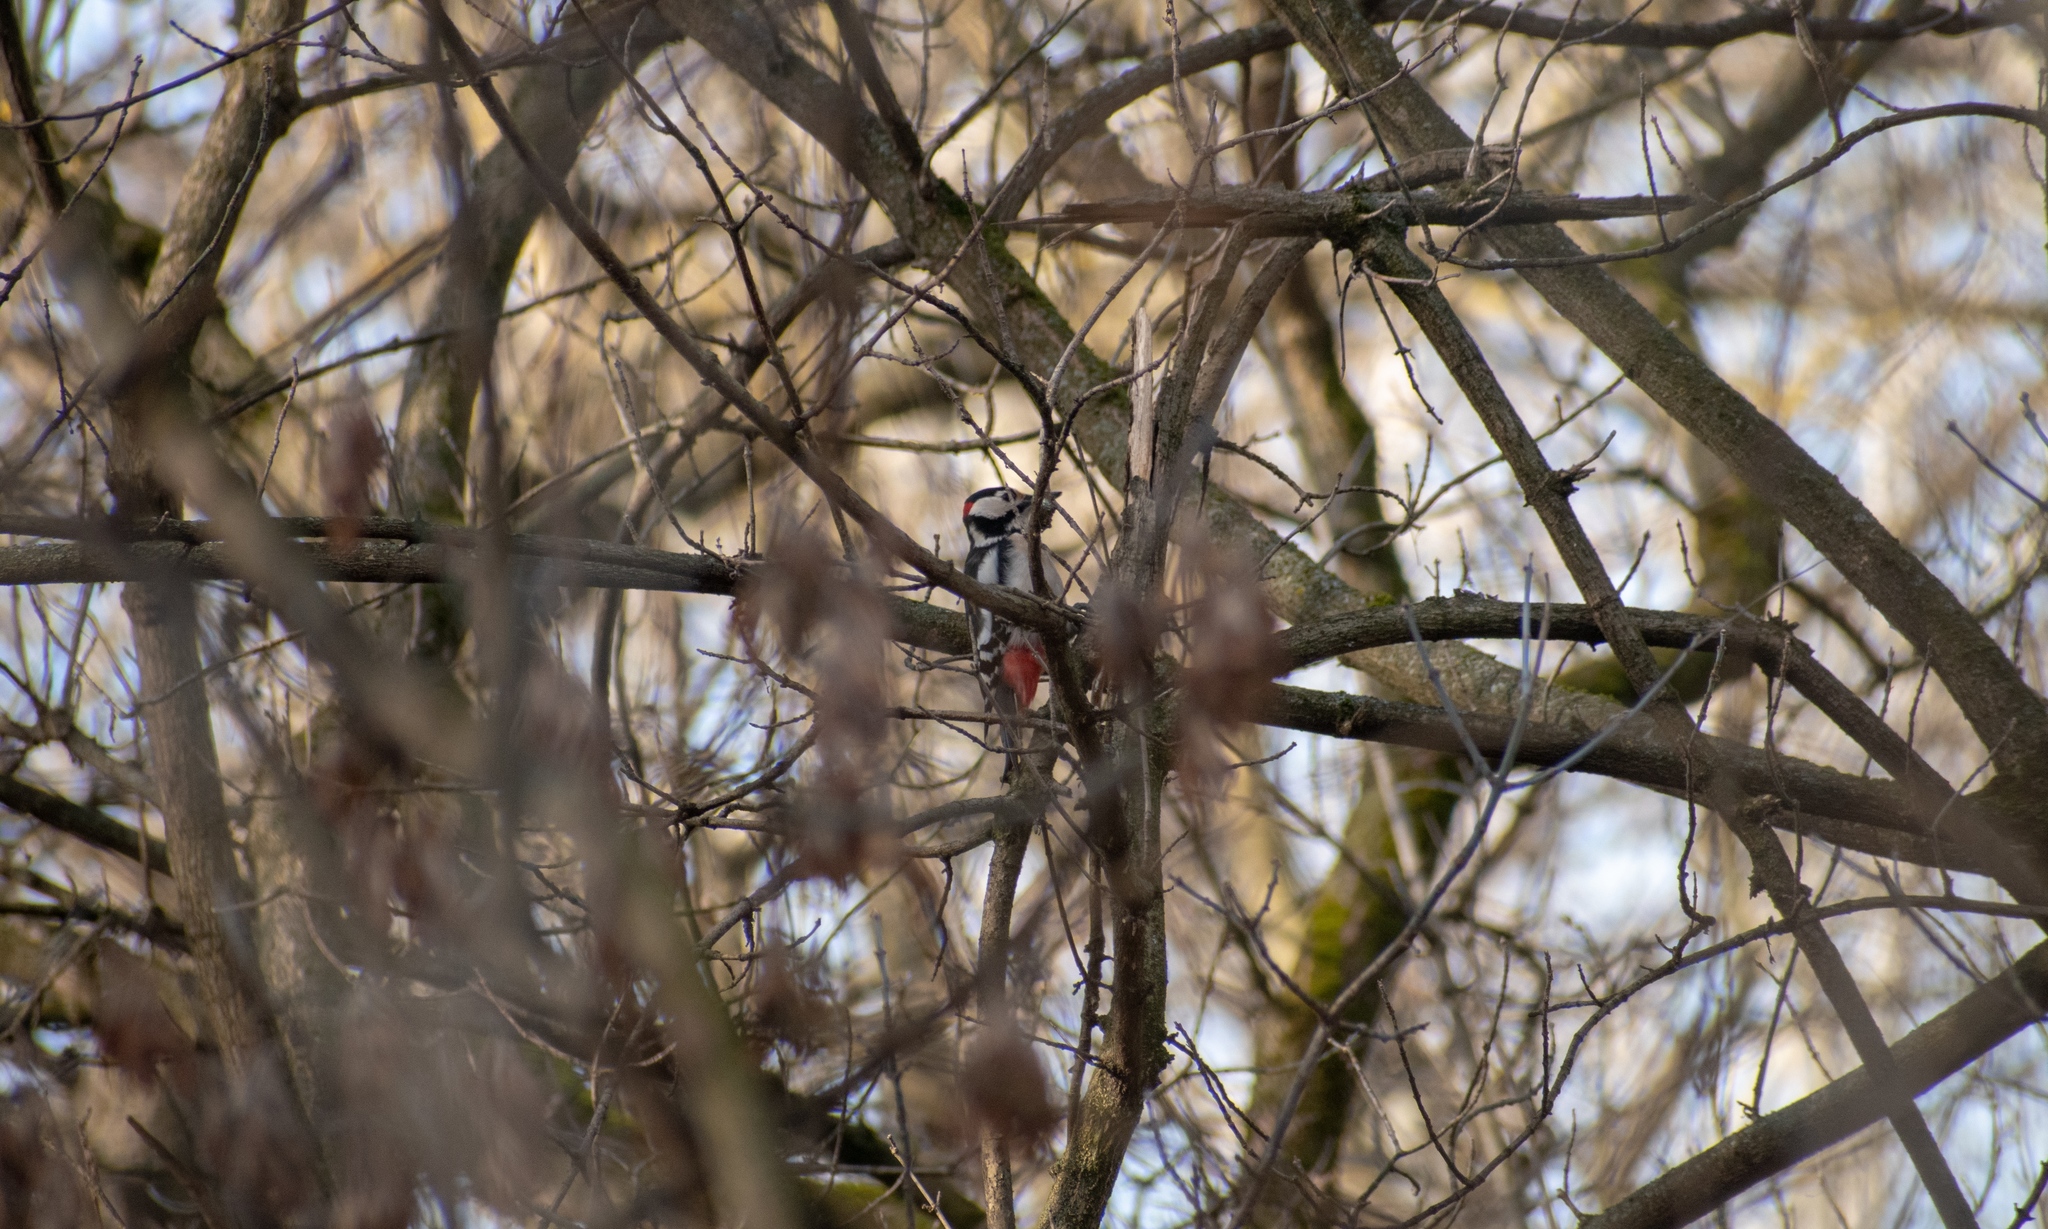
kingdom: Animalia
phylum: Chordata
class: Aves
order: Piciformes
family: Picidae
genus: Dendrocopos
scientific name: Dendrocopos major
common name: Great spotted woodpecker
